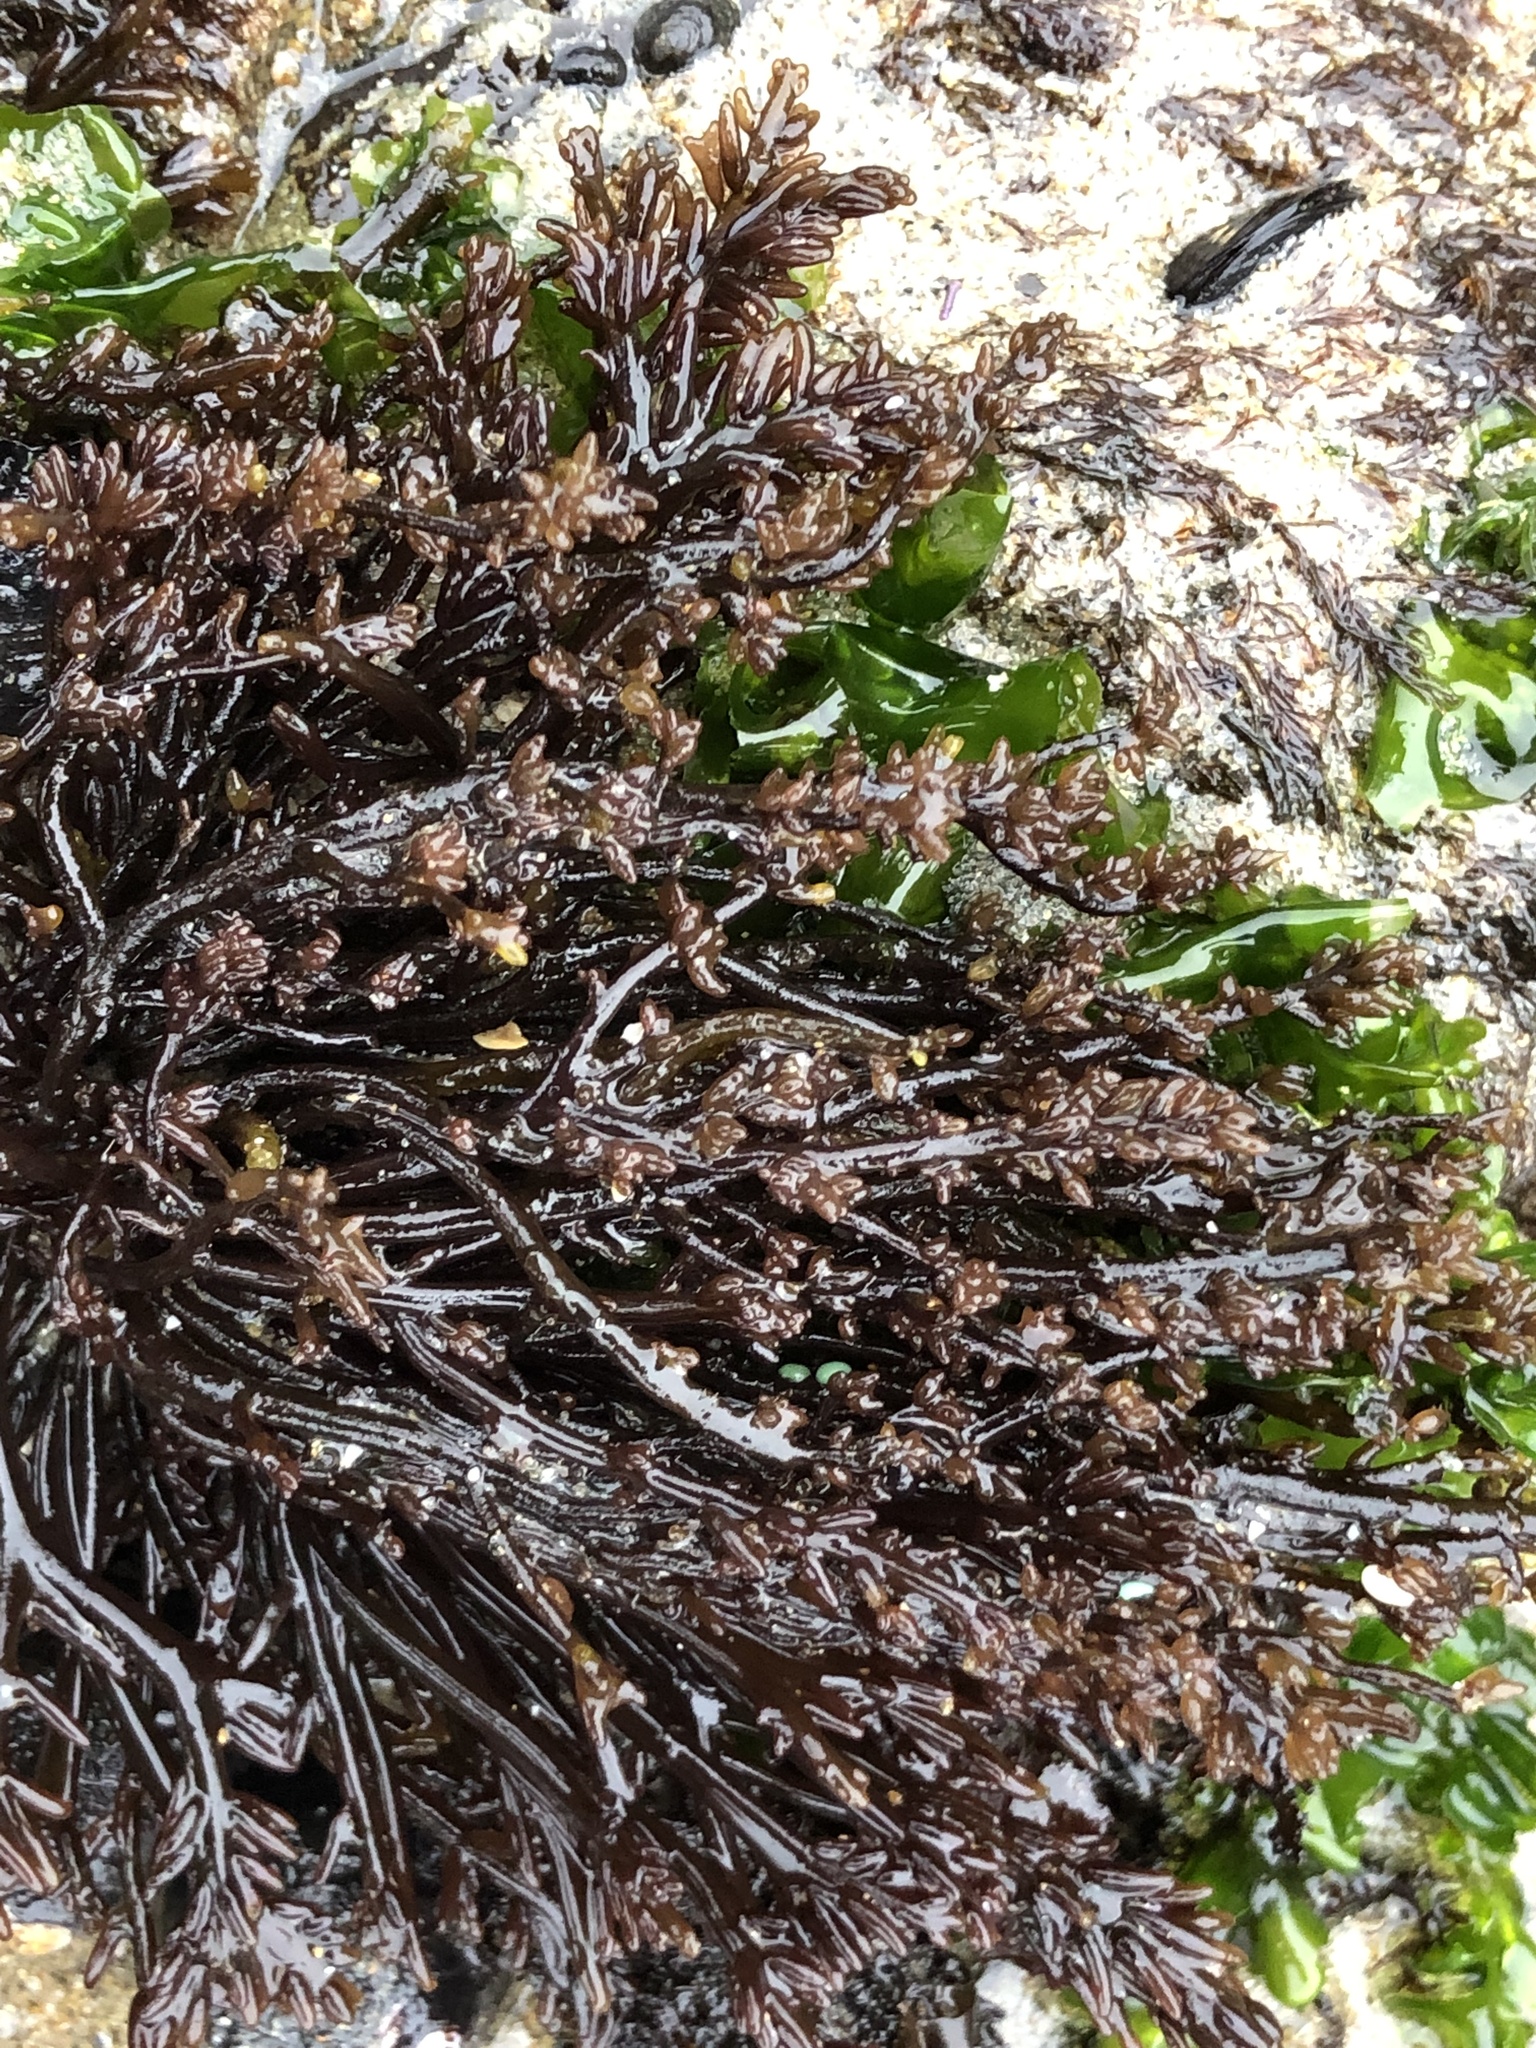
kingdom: Plantae
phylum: Rhodophyta
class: Florideophyceae
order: Rhodymeniales
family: Champiaceae
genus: Neogastroclonium
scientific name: Neogastroclonium subarticulatum
